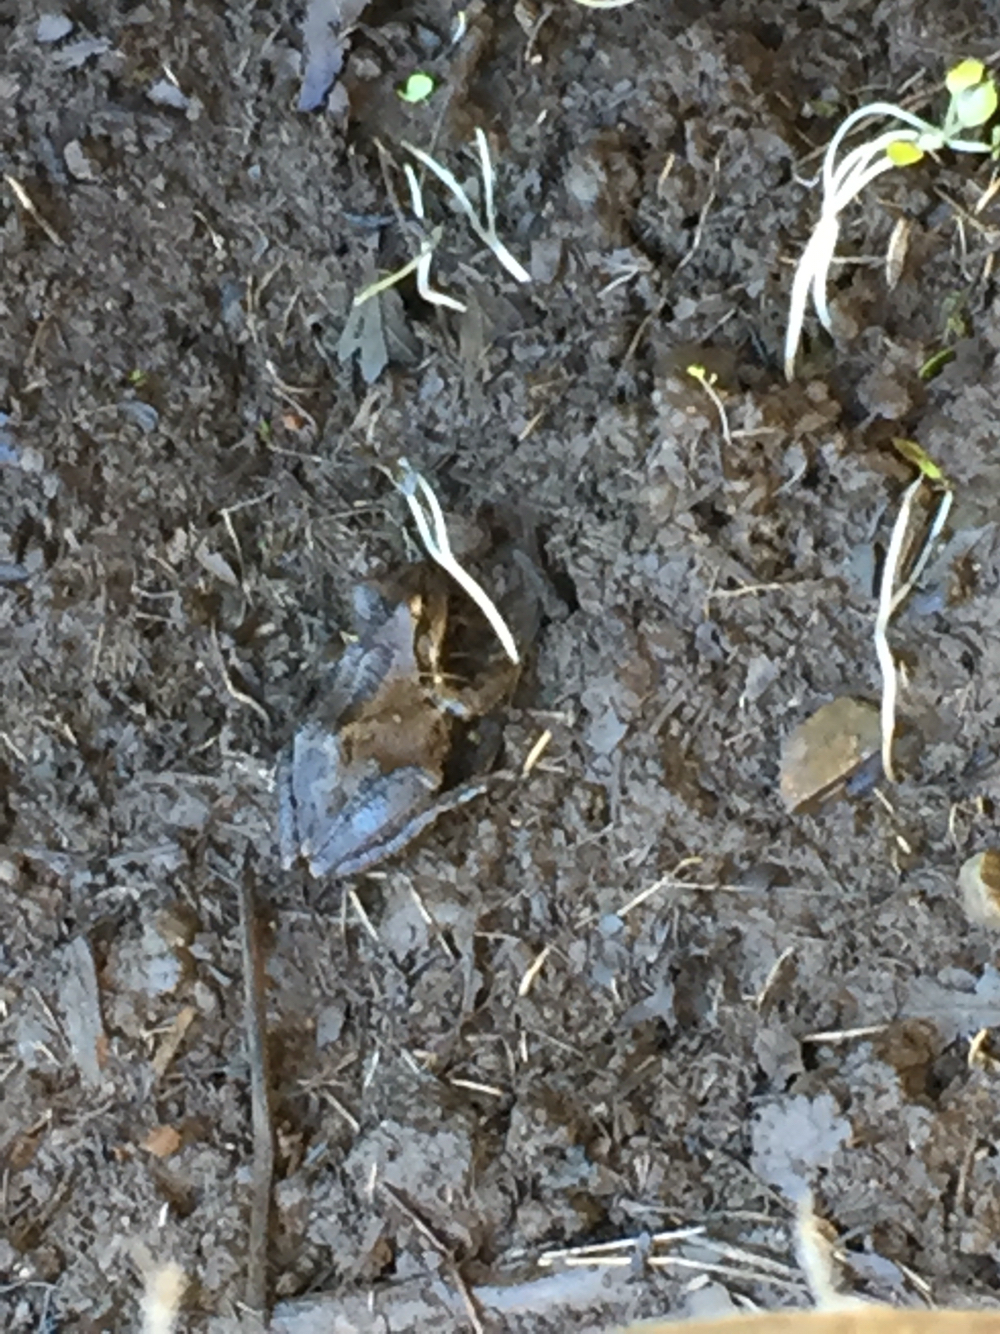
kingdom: Animalia
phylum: Chordata
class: Amphibia
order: Anura
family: Hylidae
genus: Pseudacris
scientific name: Pseudacris regilla
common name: Pacific chorus frog
